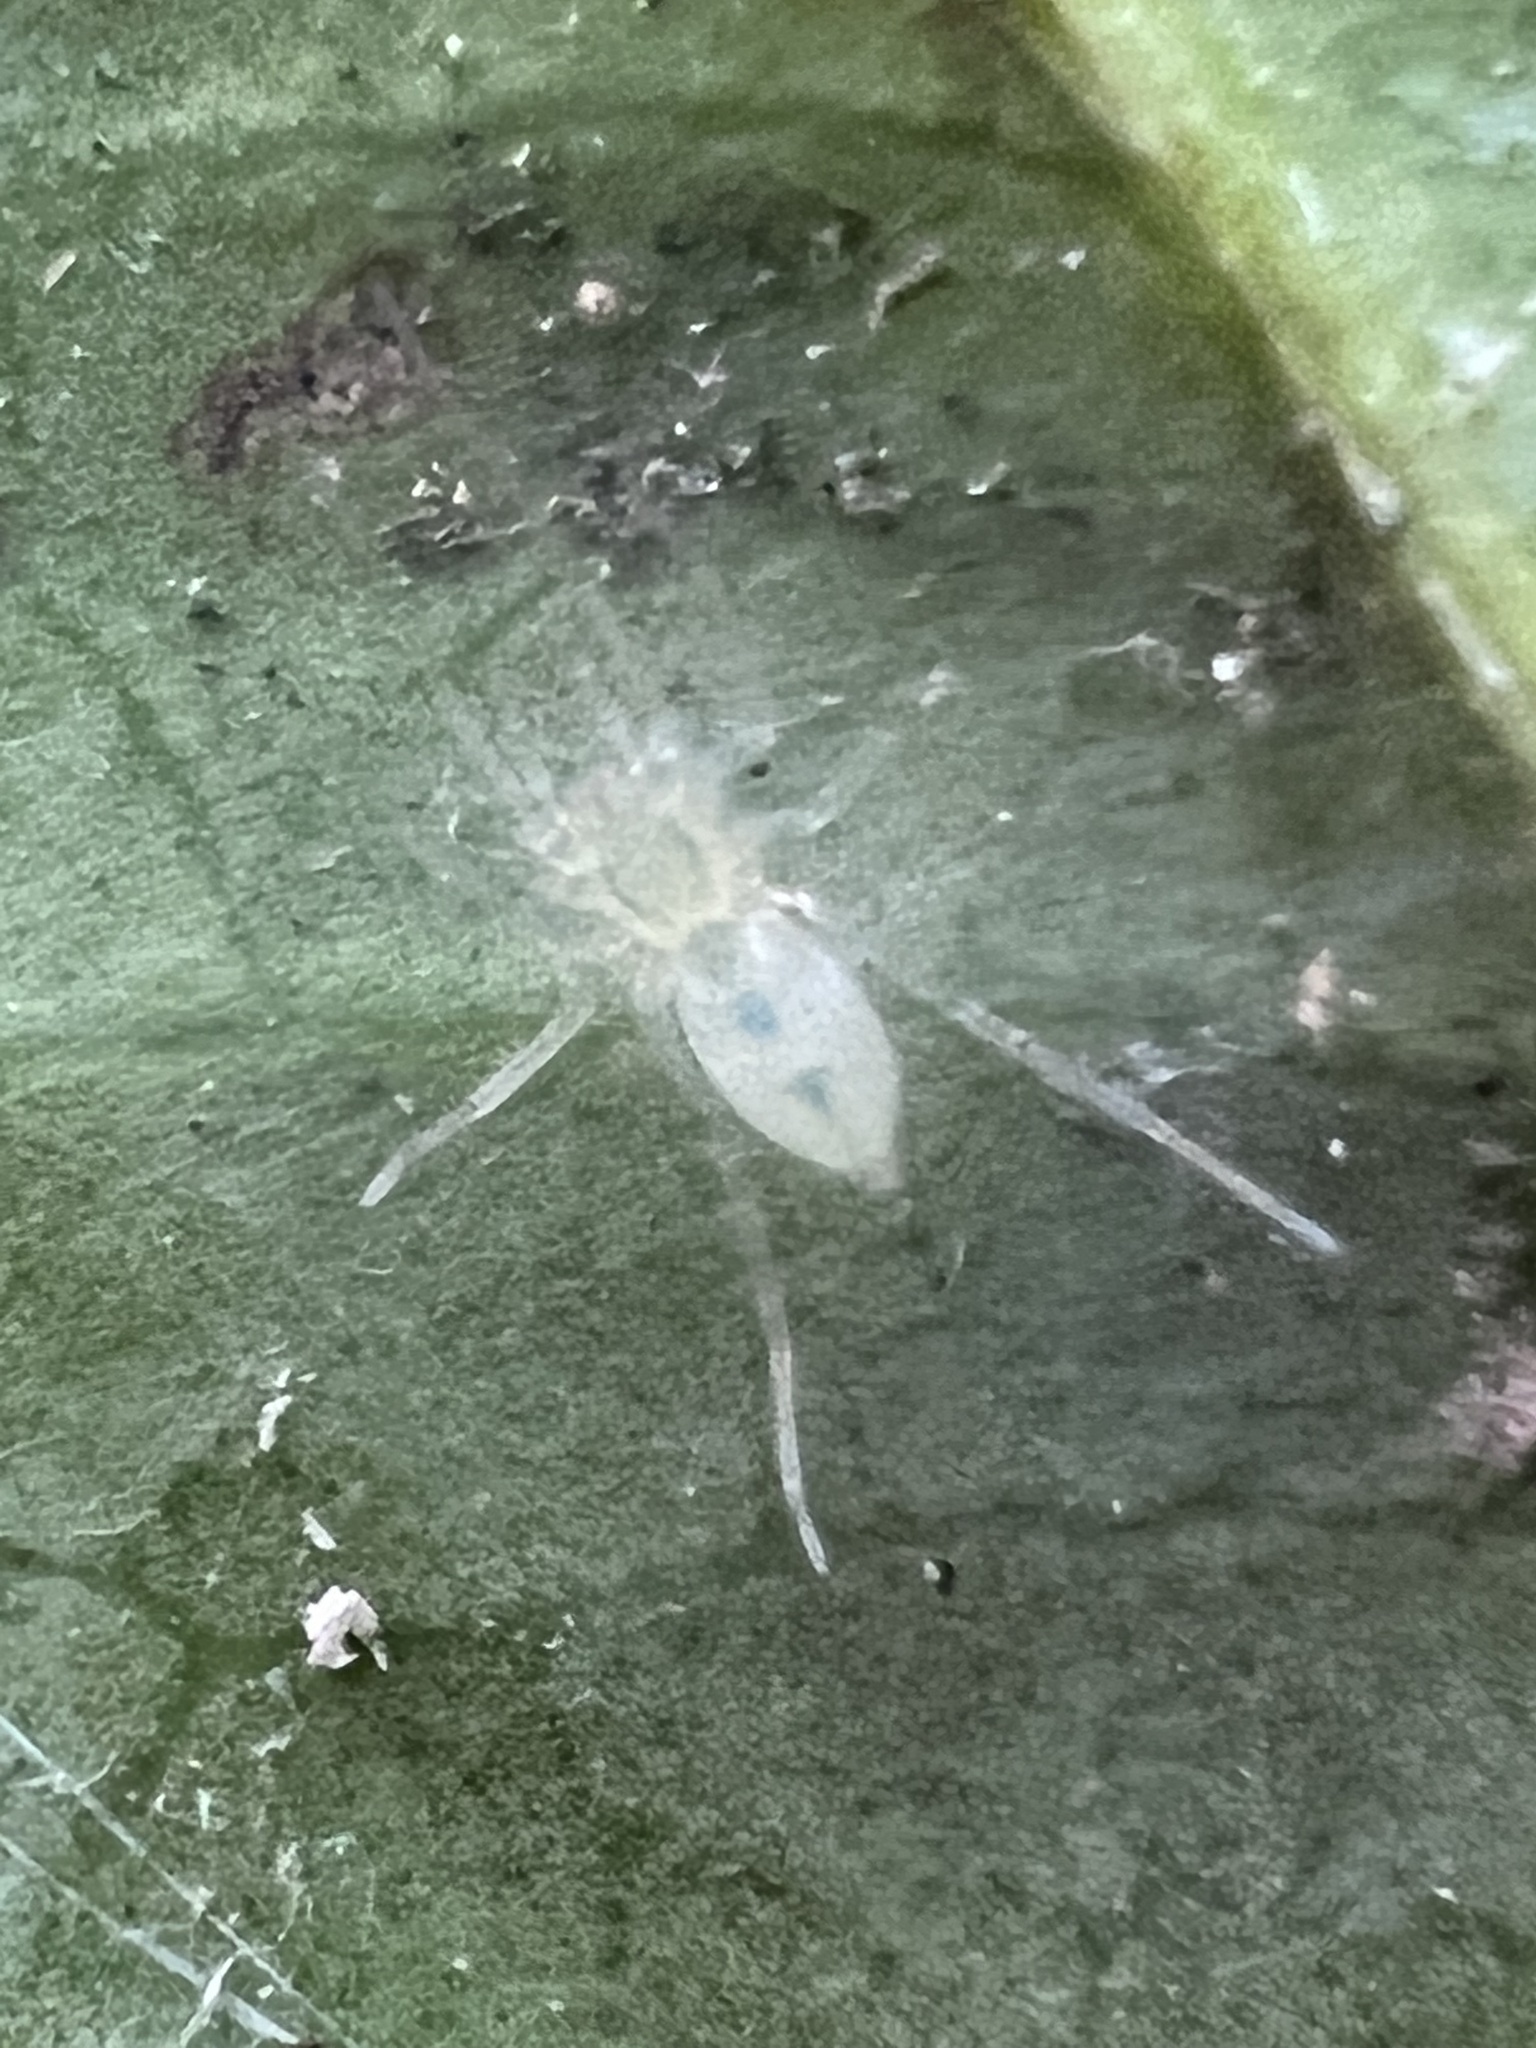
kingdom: Animalia
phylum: Arthropoda
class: Arachnida
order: Araneae
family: Anyphaenidae
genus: Wulfila
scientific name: Wulfila albens
